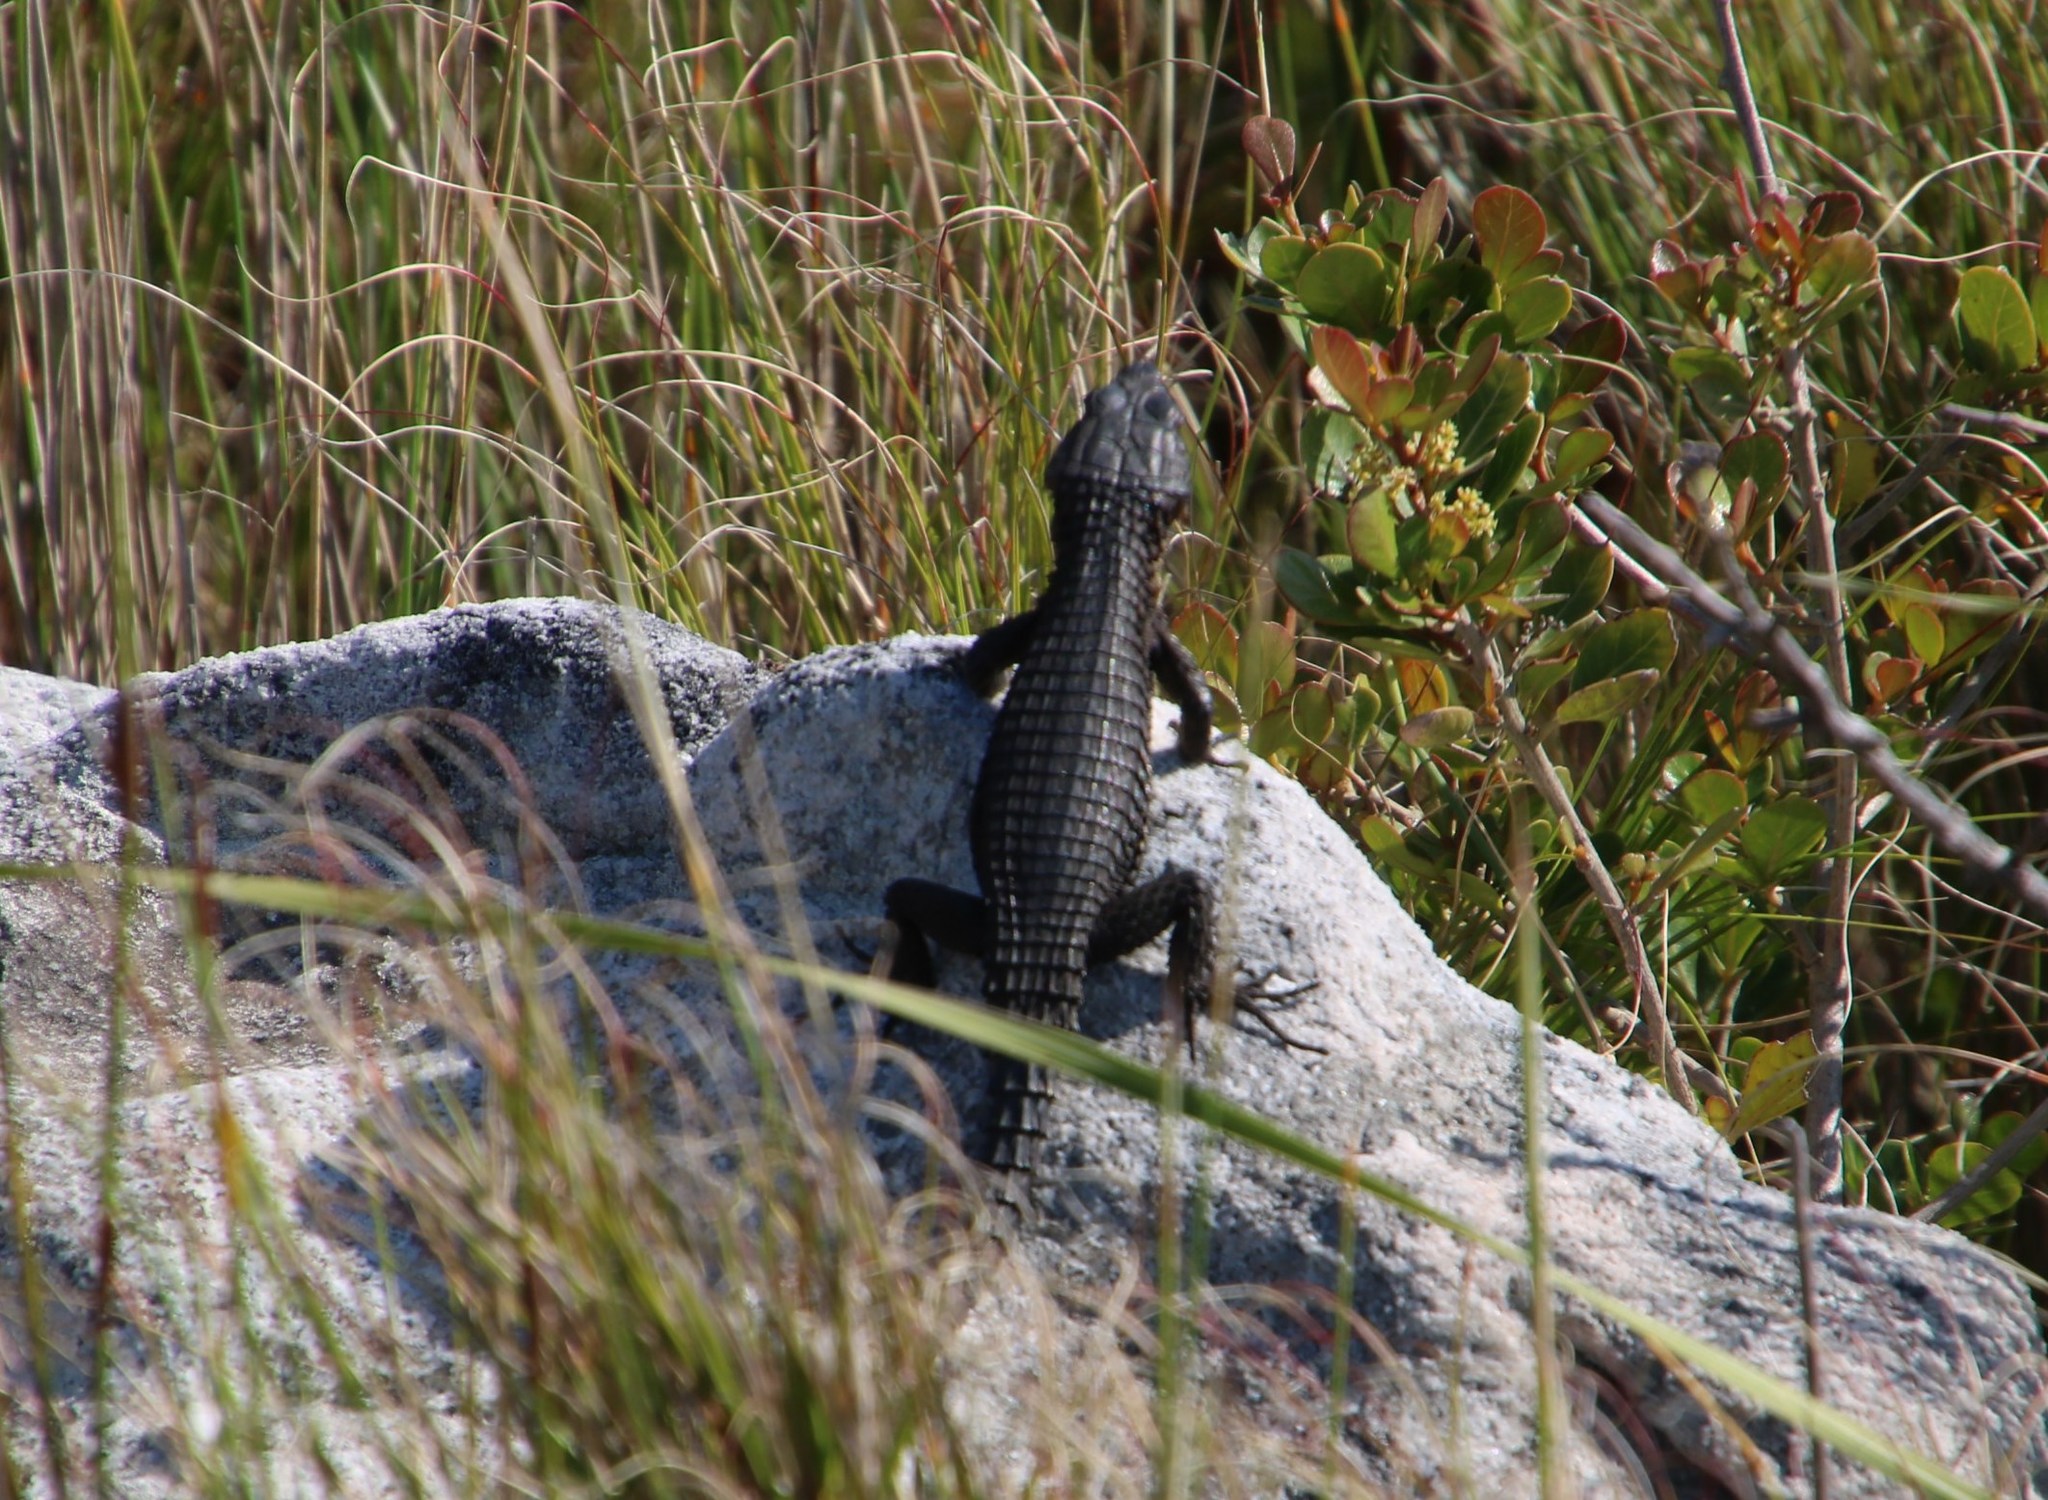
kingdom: Animalia
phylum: Chordata
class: Squamata
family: Cordylidae
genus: Cordylus
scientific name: Cordylus niger
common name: Black girdled lizard
